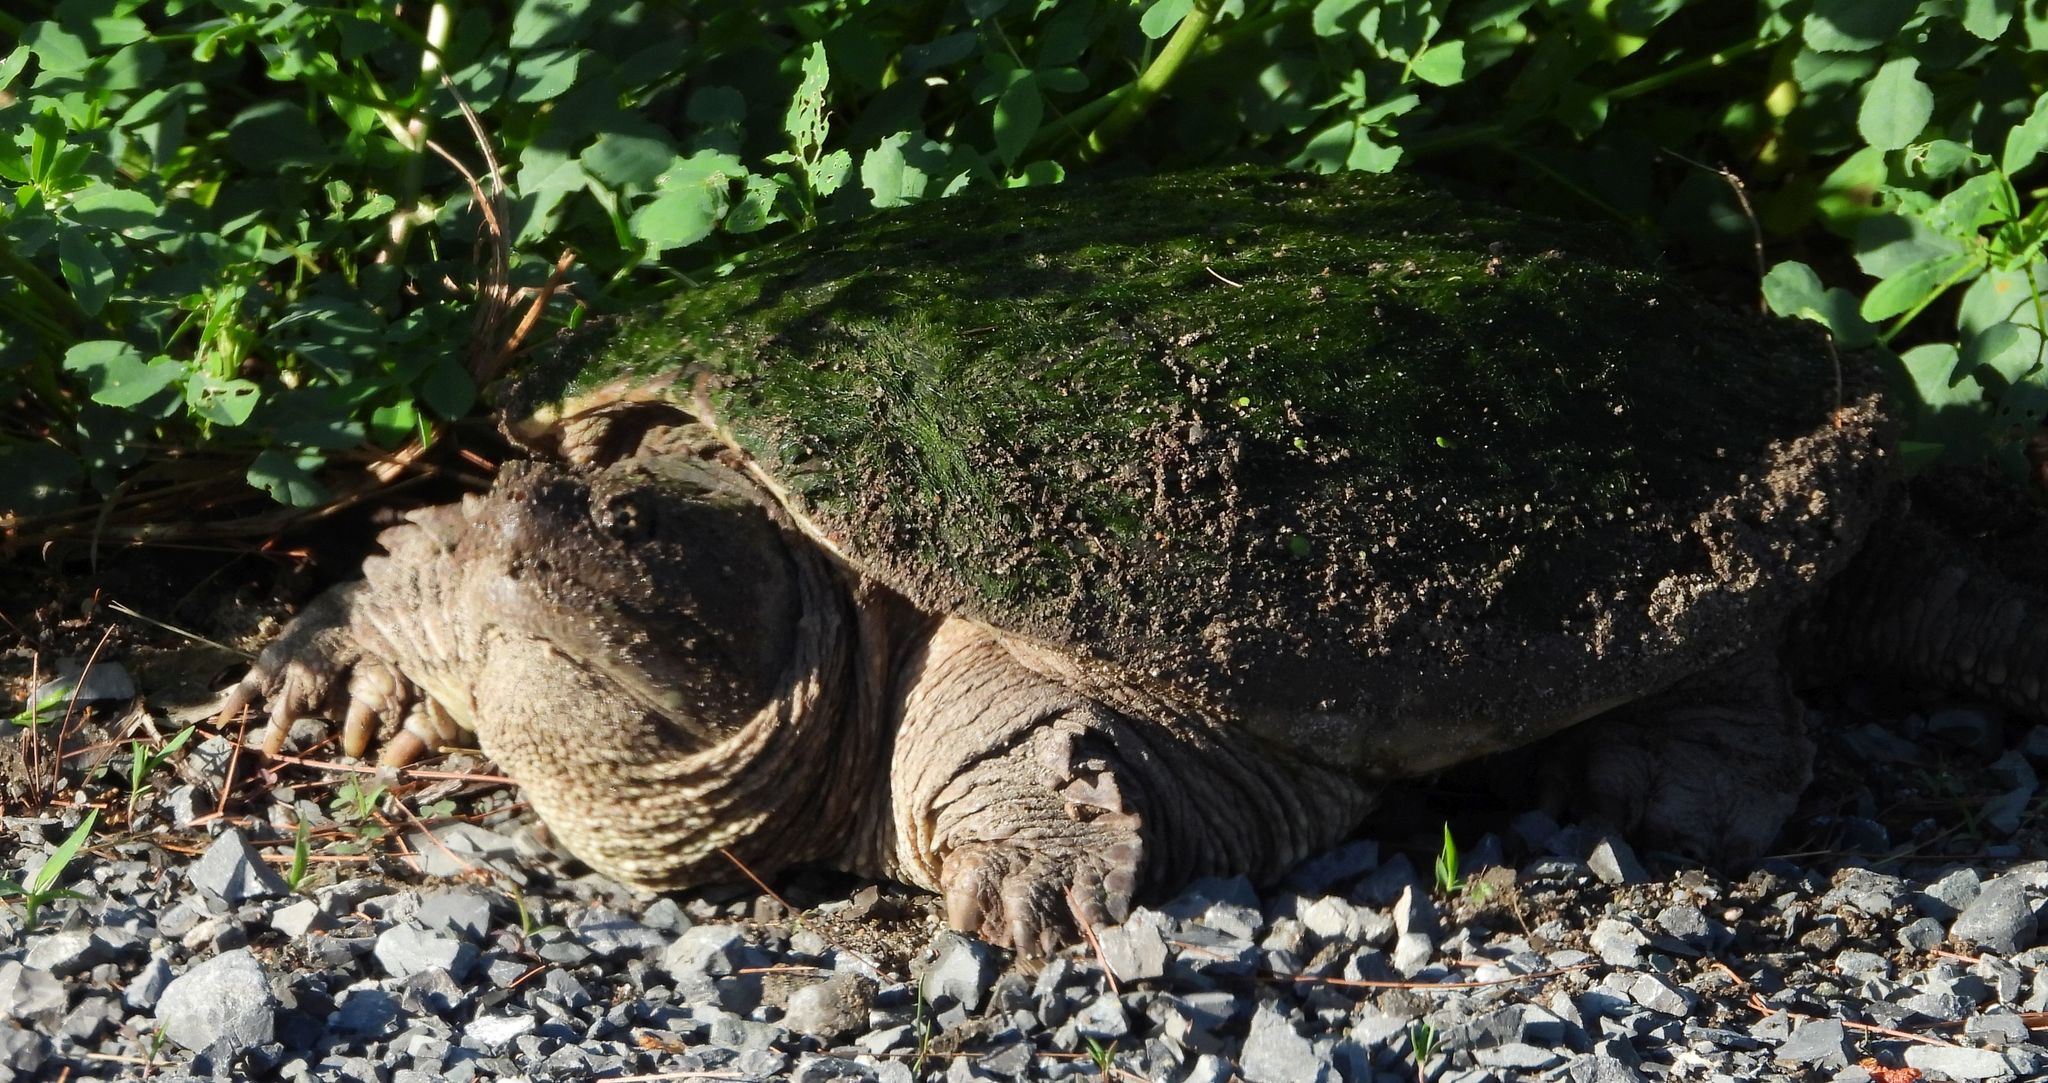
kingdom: Animalia
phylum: Chordata
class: Testudines
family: Chelydridae
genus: Chelydra
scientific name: Chelydra serpentina
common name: Common snapping turtle
